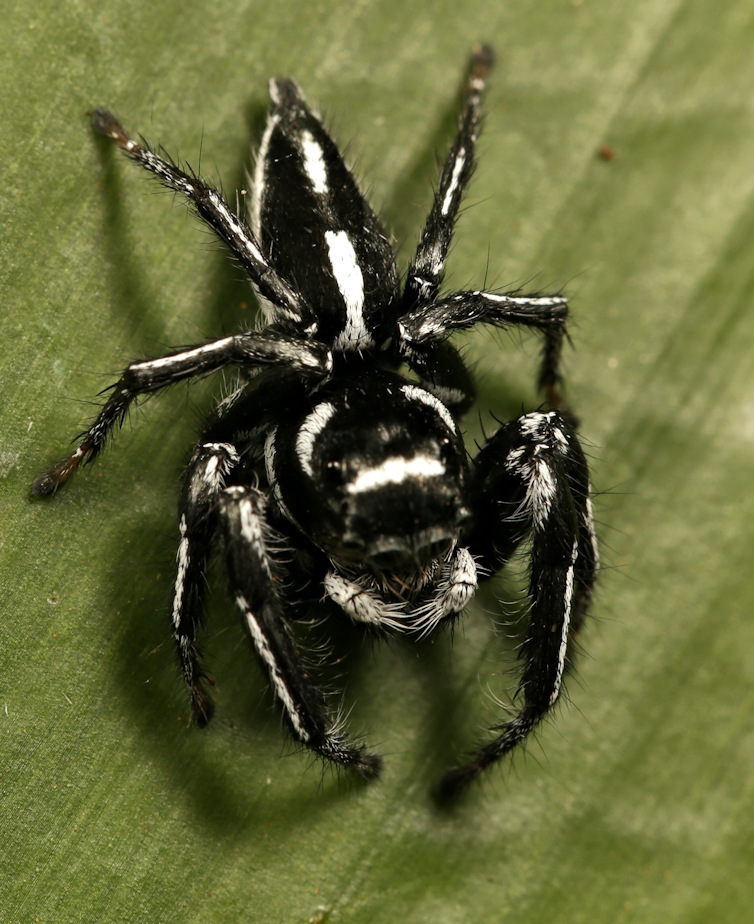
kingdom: Animalia
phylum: Arthropoda
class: Arachnida
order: Araneae
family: Salticidae
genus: Hyllus
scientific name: Hyllus argyrotoxus
